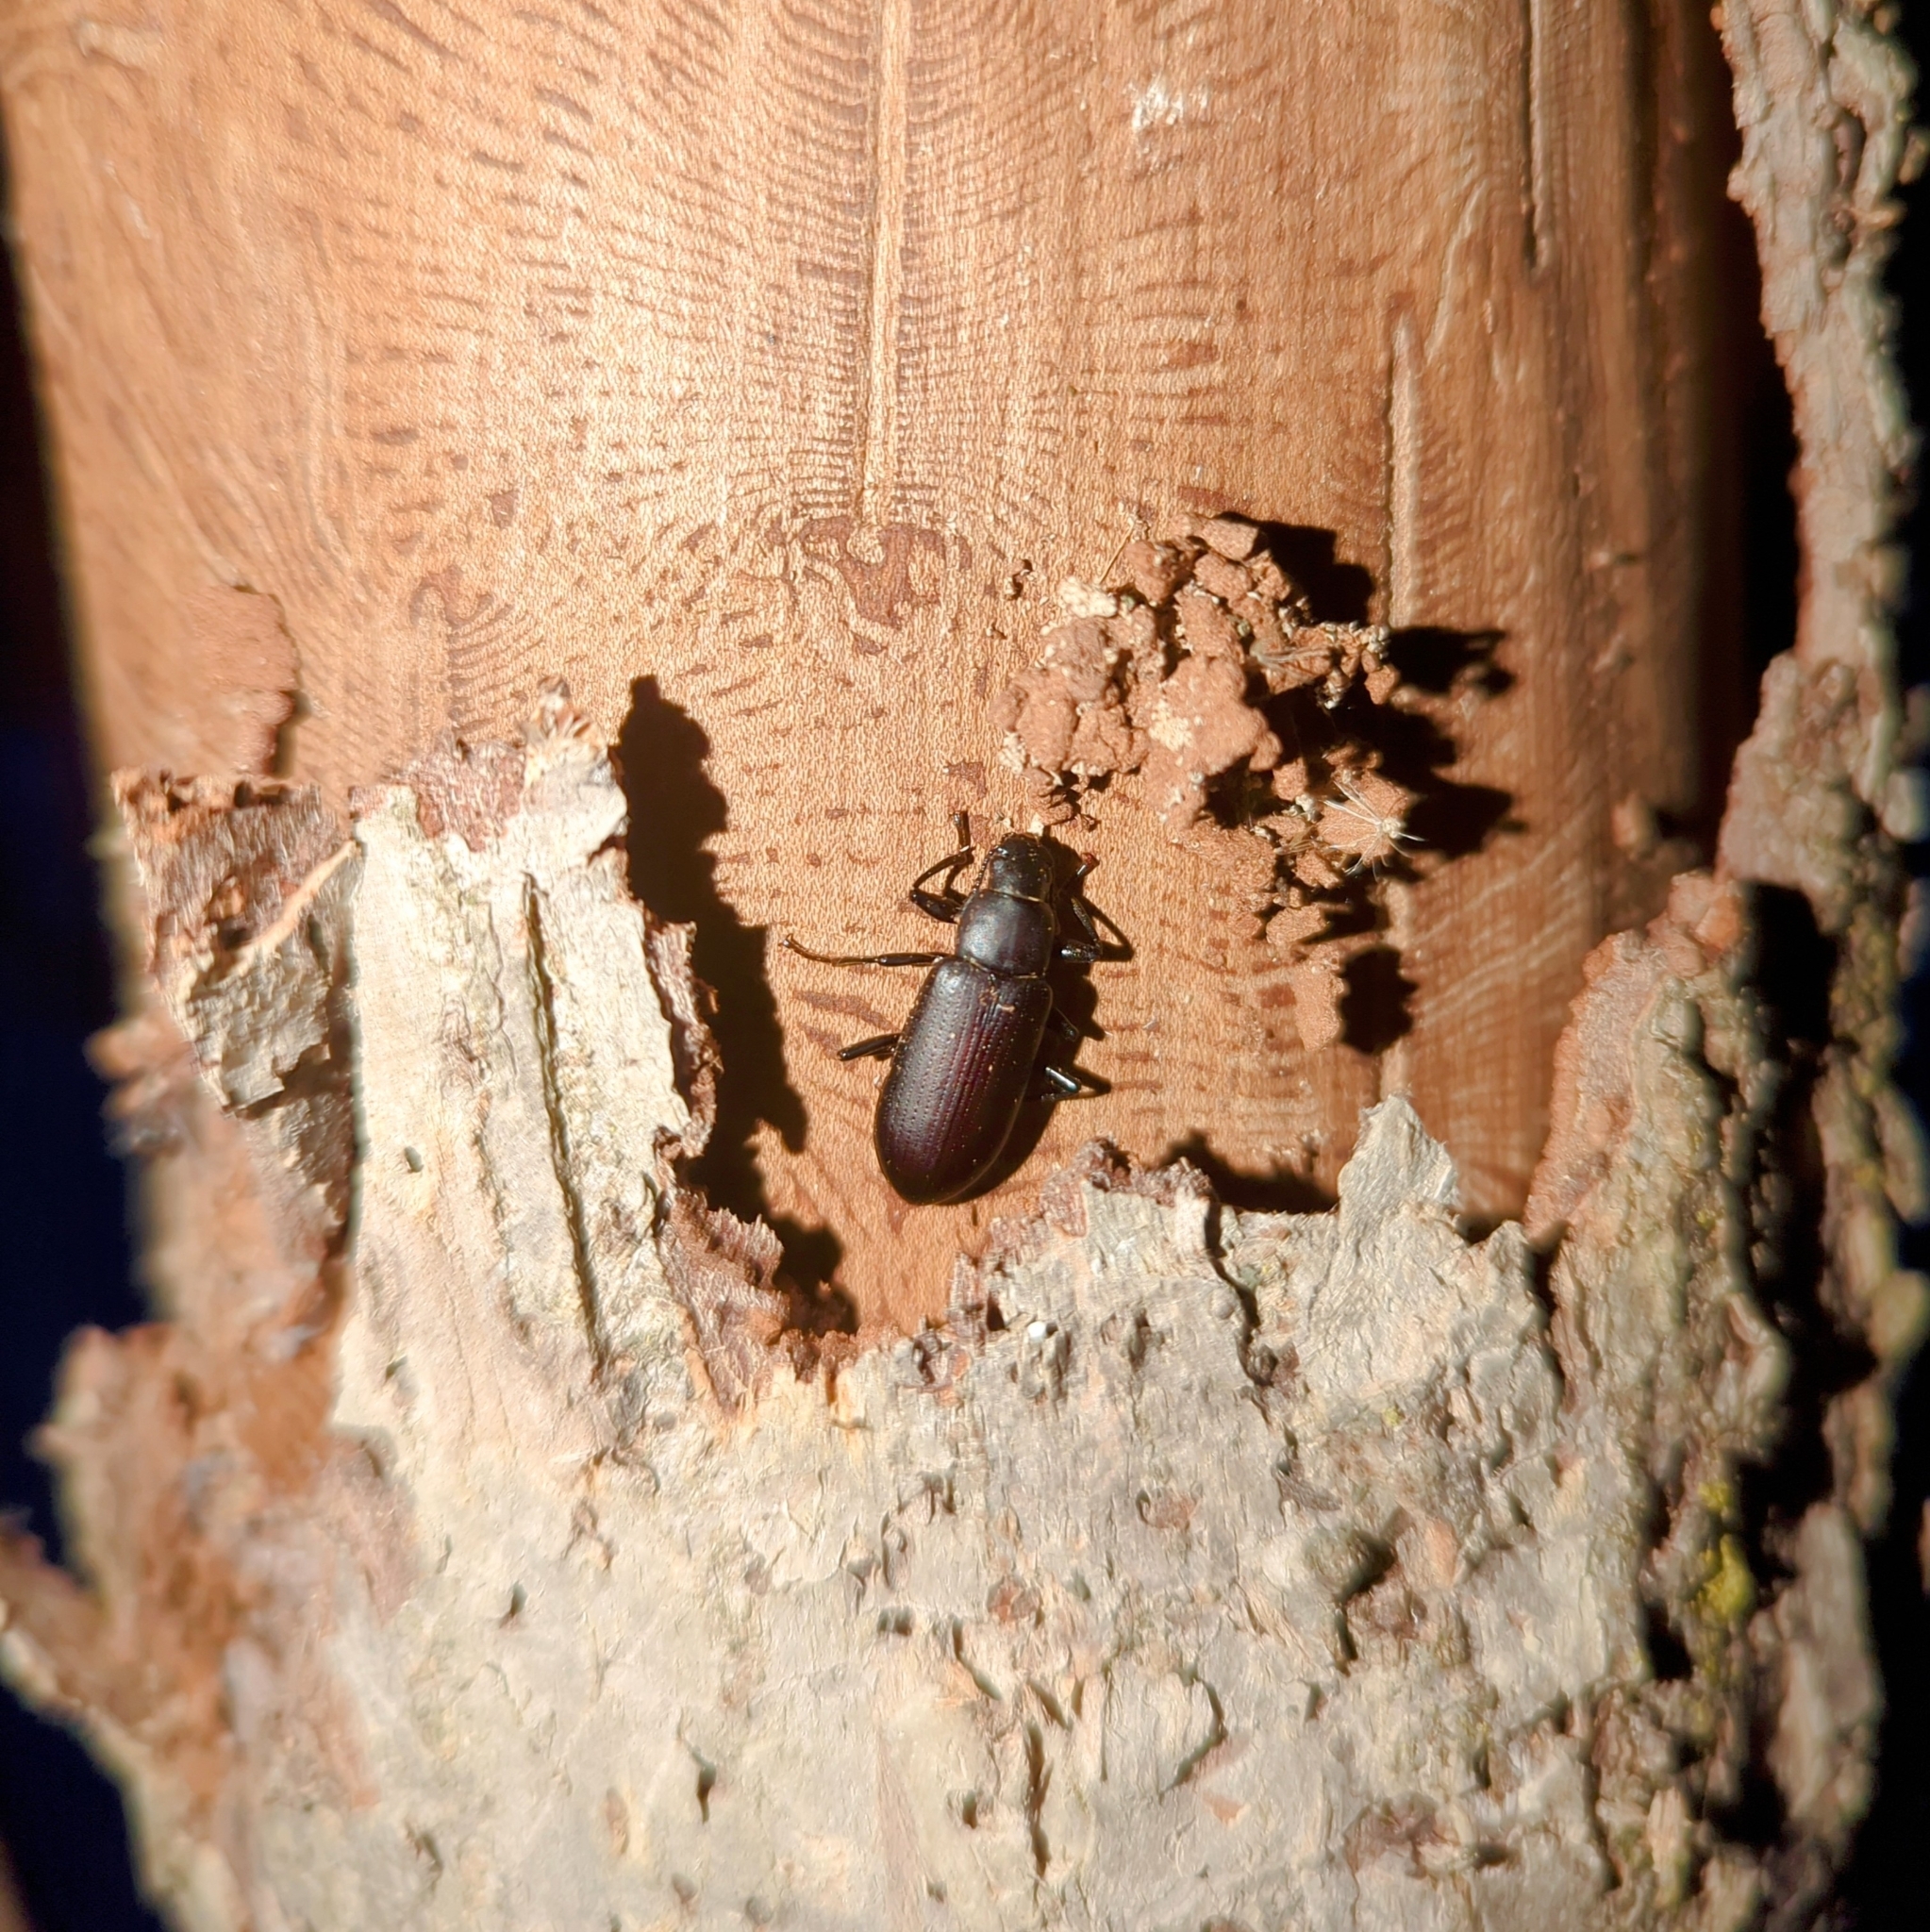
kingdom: Animalia
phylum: Arthropoda
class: Insecta
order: Coleoptera
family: Tenebrionidae
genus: Alobates
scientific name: Alobates pensylvanicus
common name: False mealworm beetle
